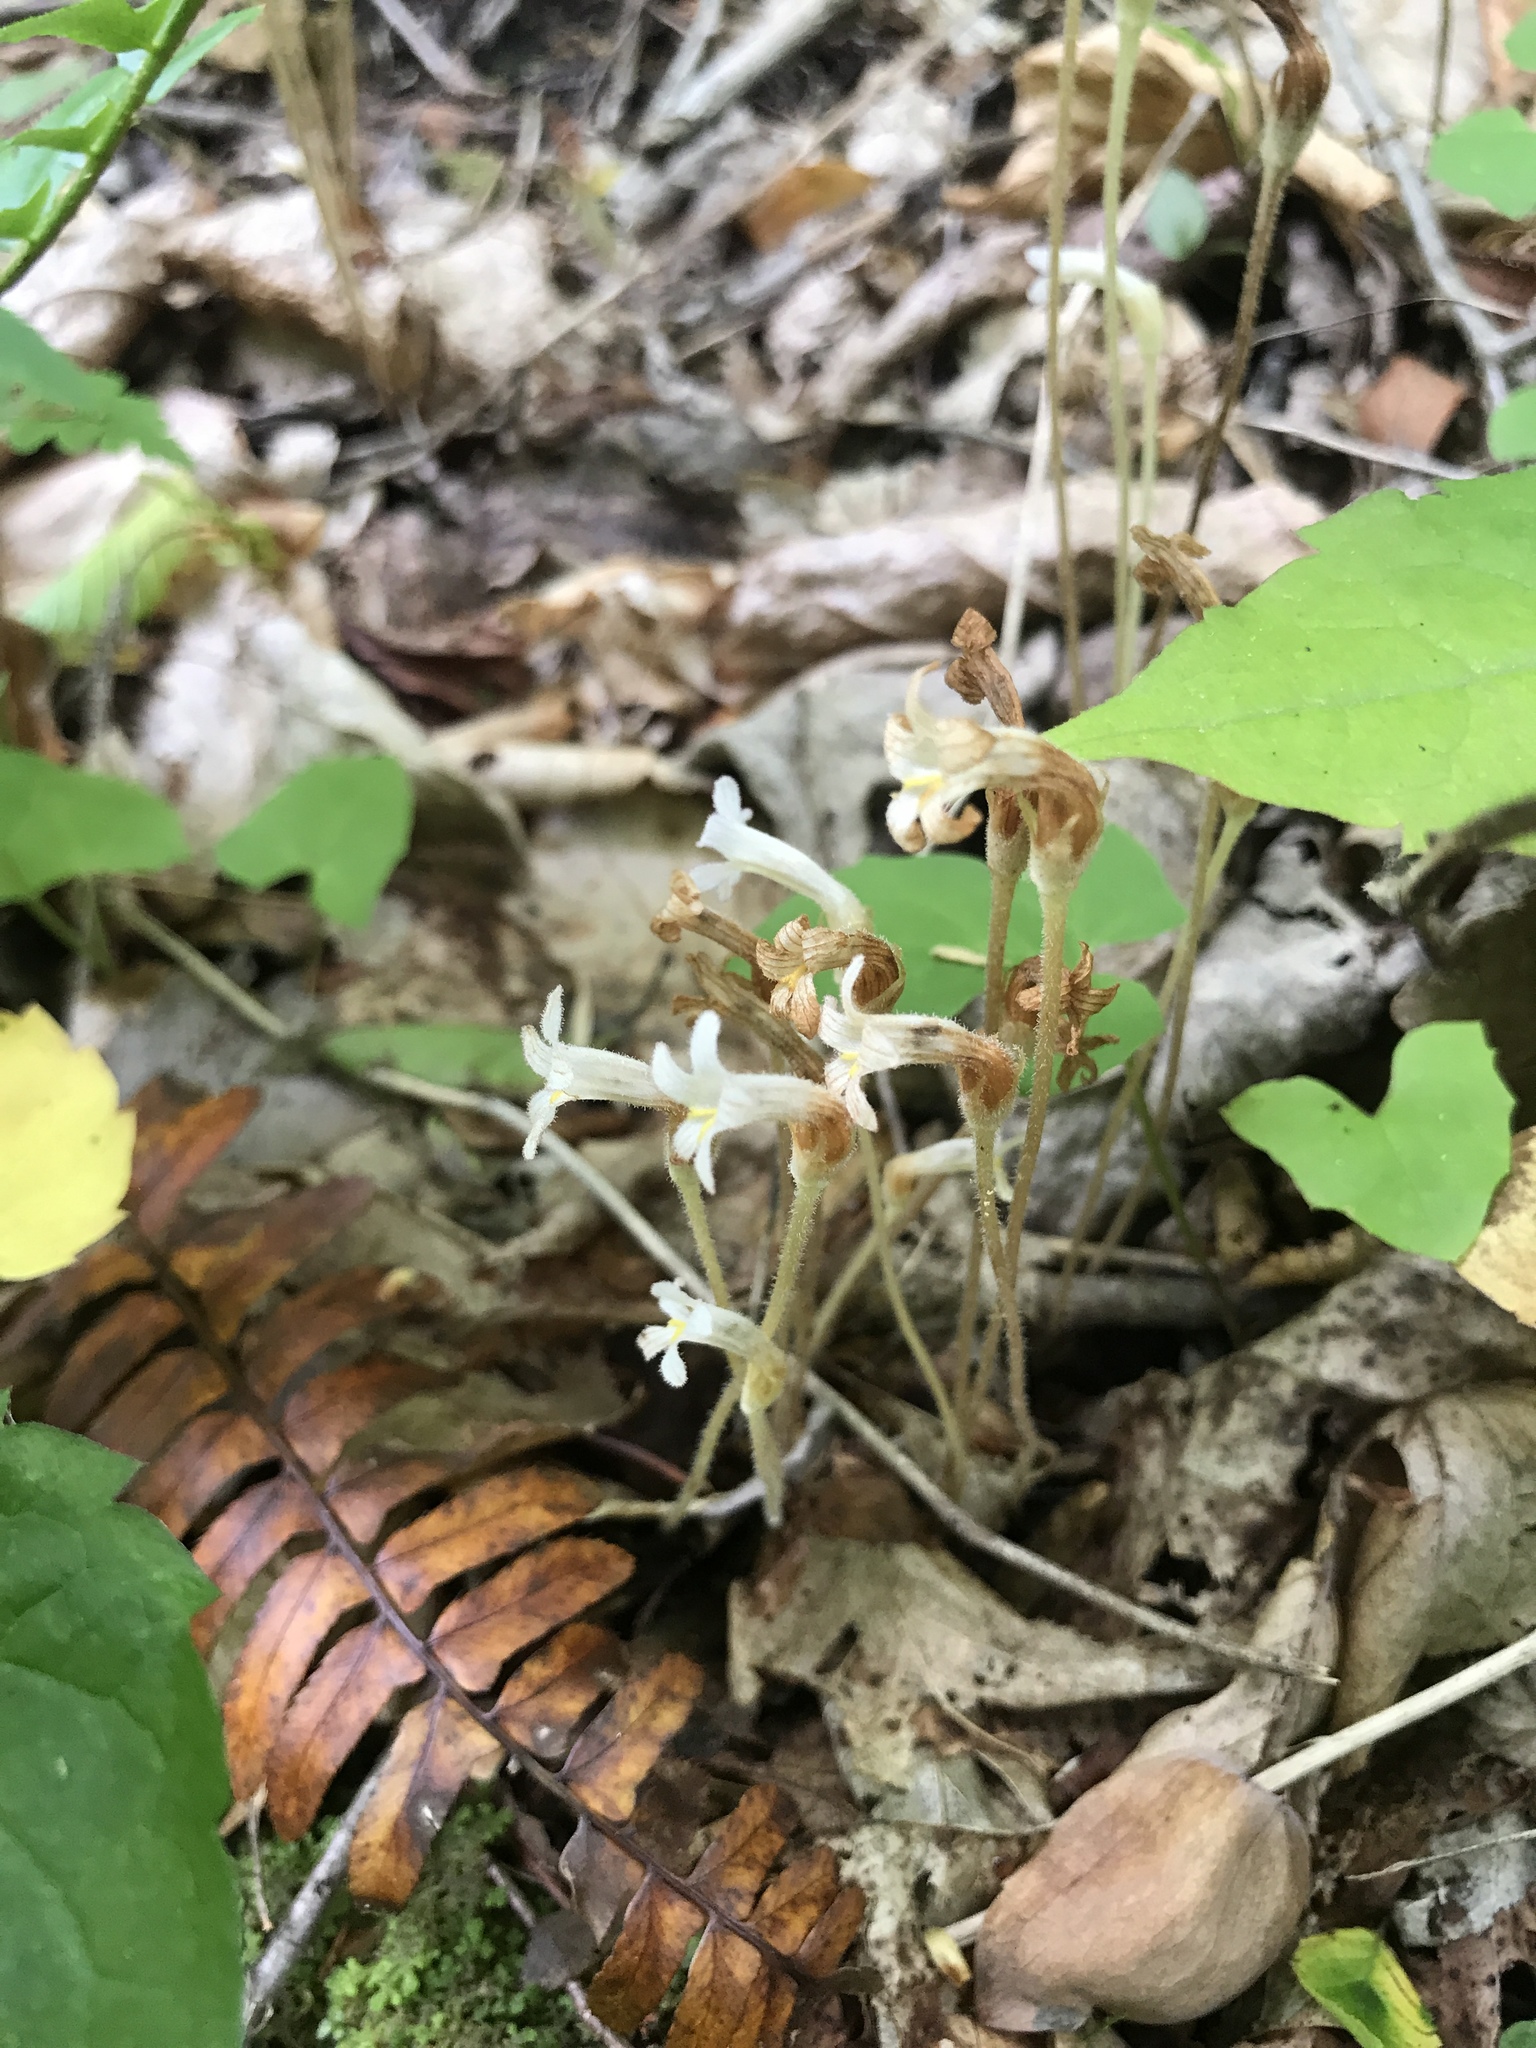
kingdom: Plantae
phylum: Tracheophyta
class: Magnoliopsida
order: Lamiales
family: Orobanchaceae
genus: Aphyllon
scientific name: Aphyllon uniflorum
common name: One-flowered broomrape
